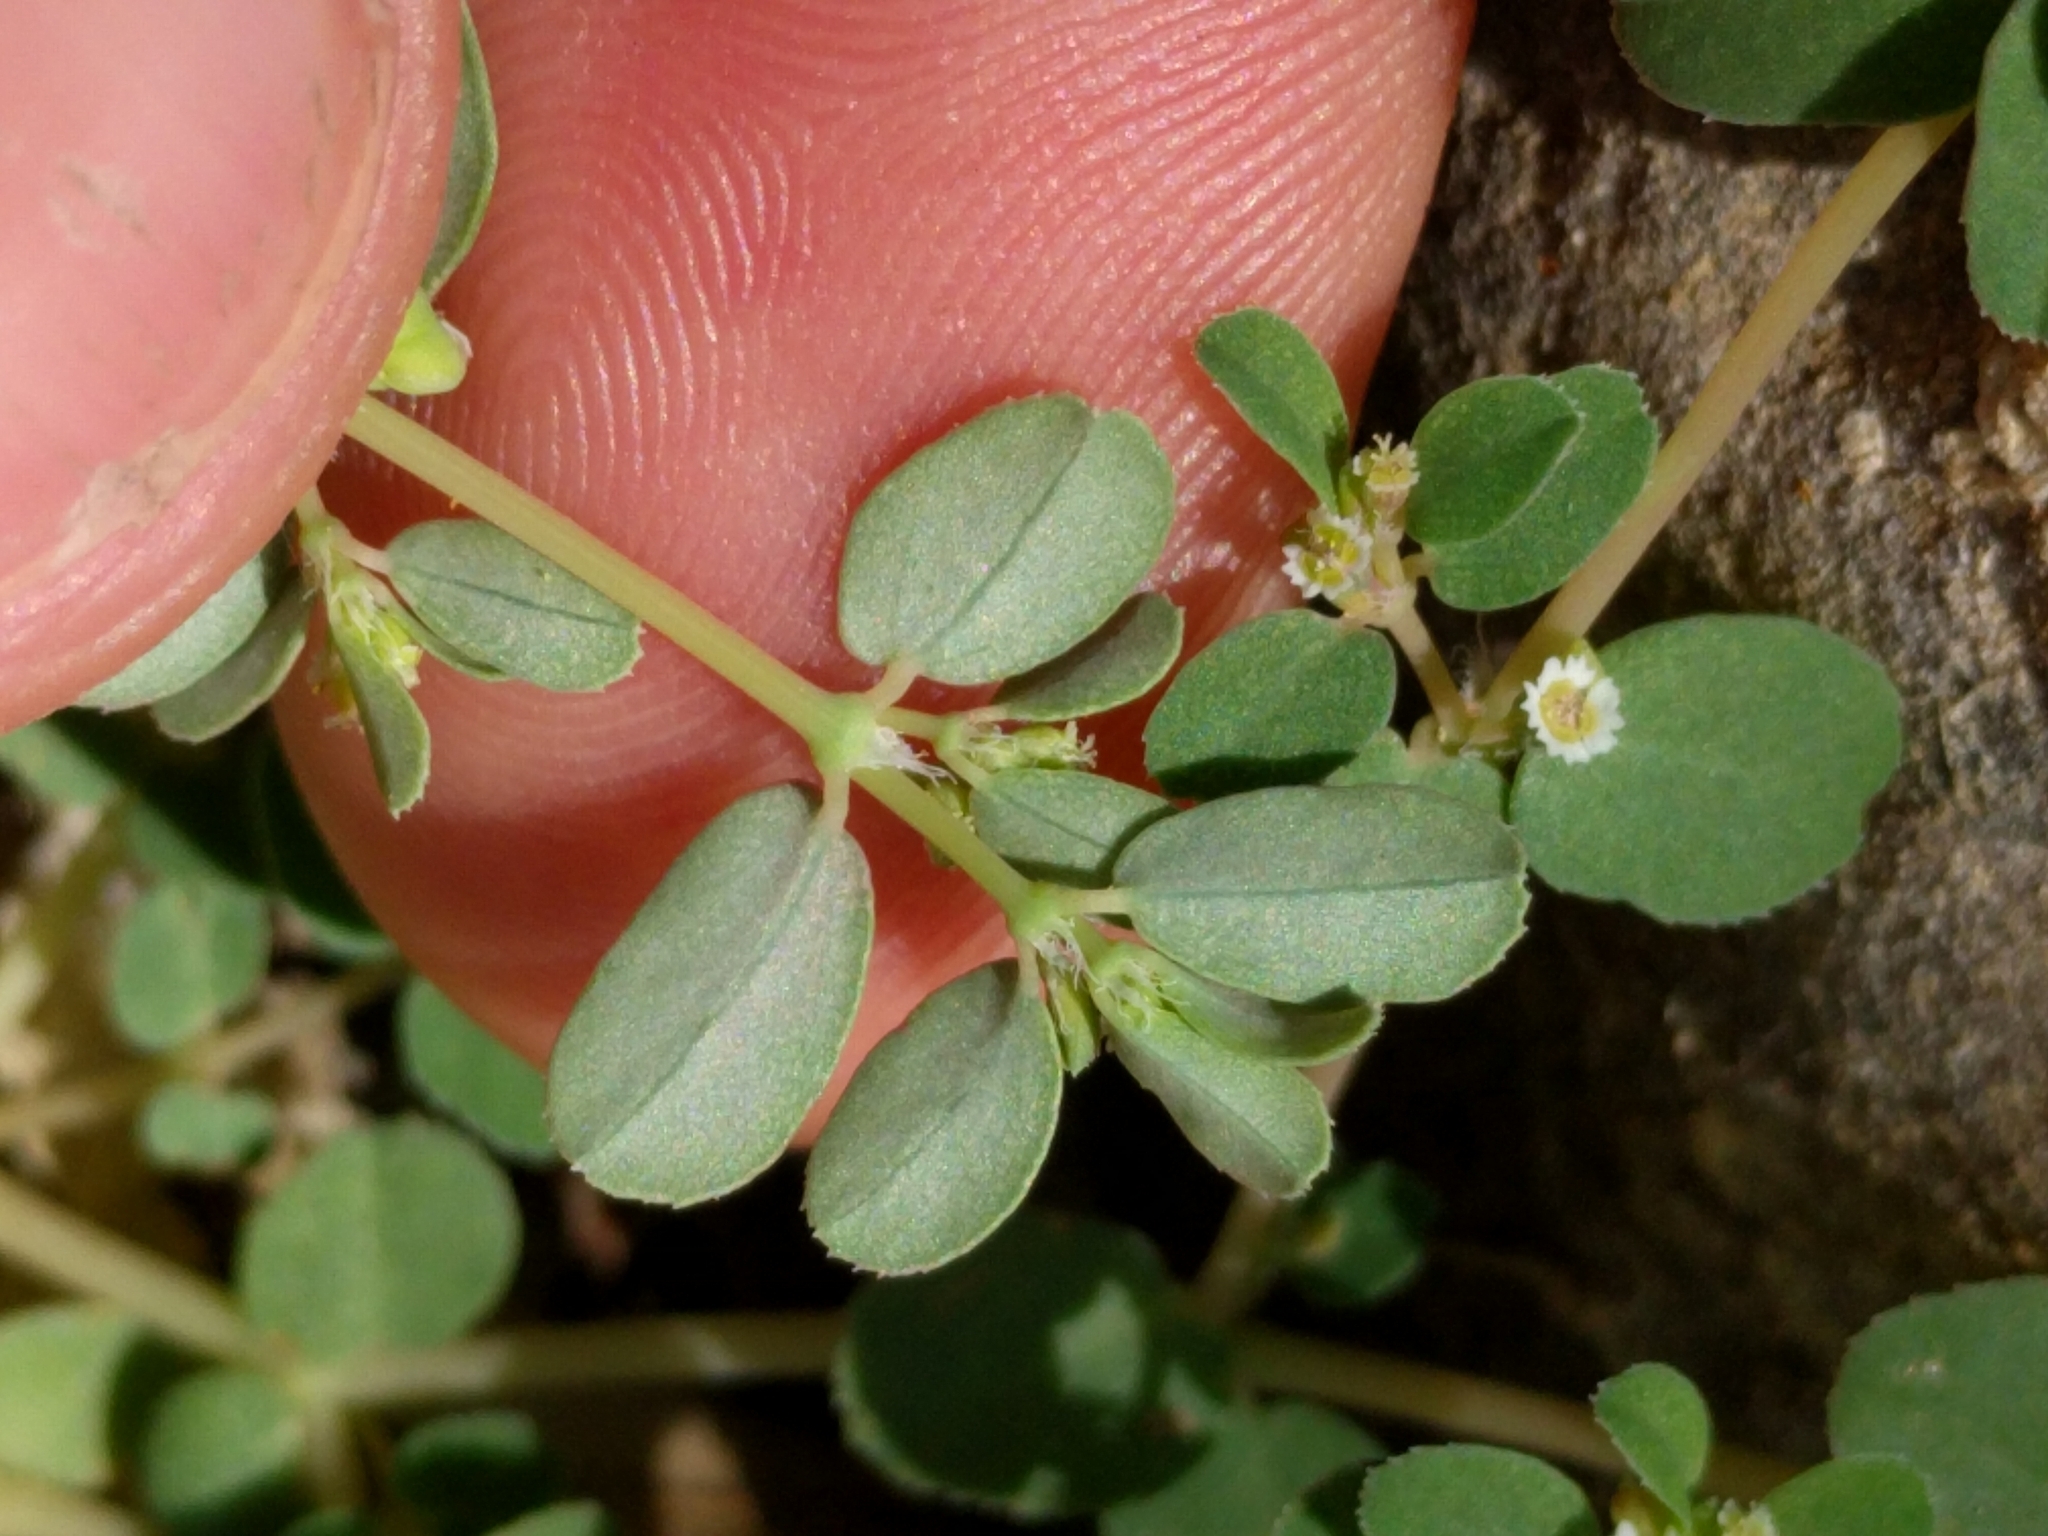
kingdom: Plantae
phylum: Tracheophyta
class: Magnoliopsida
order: Malpighiales
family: Euphorbiaceae
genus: Euphorbia
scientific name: Euphorbia serpillifolia
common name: Thyme-leaf spurge
